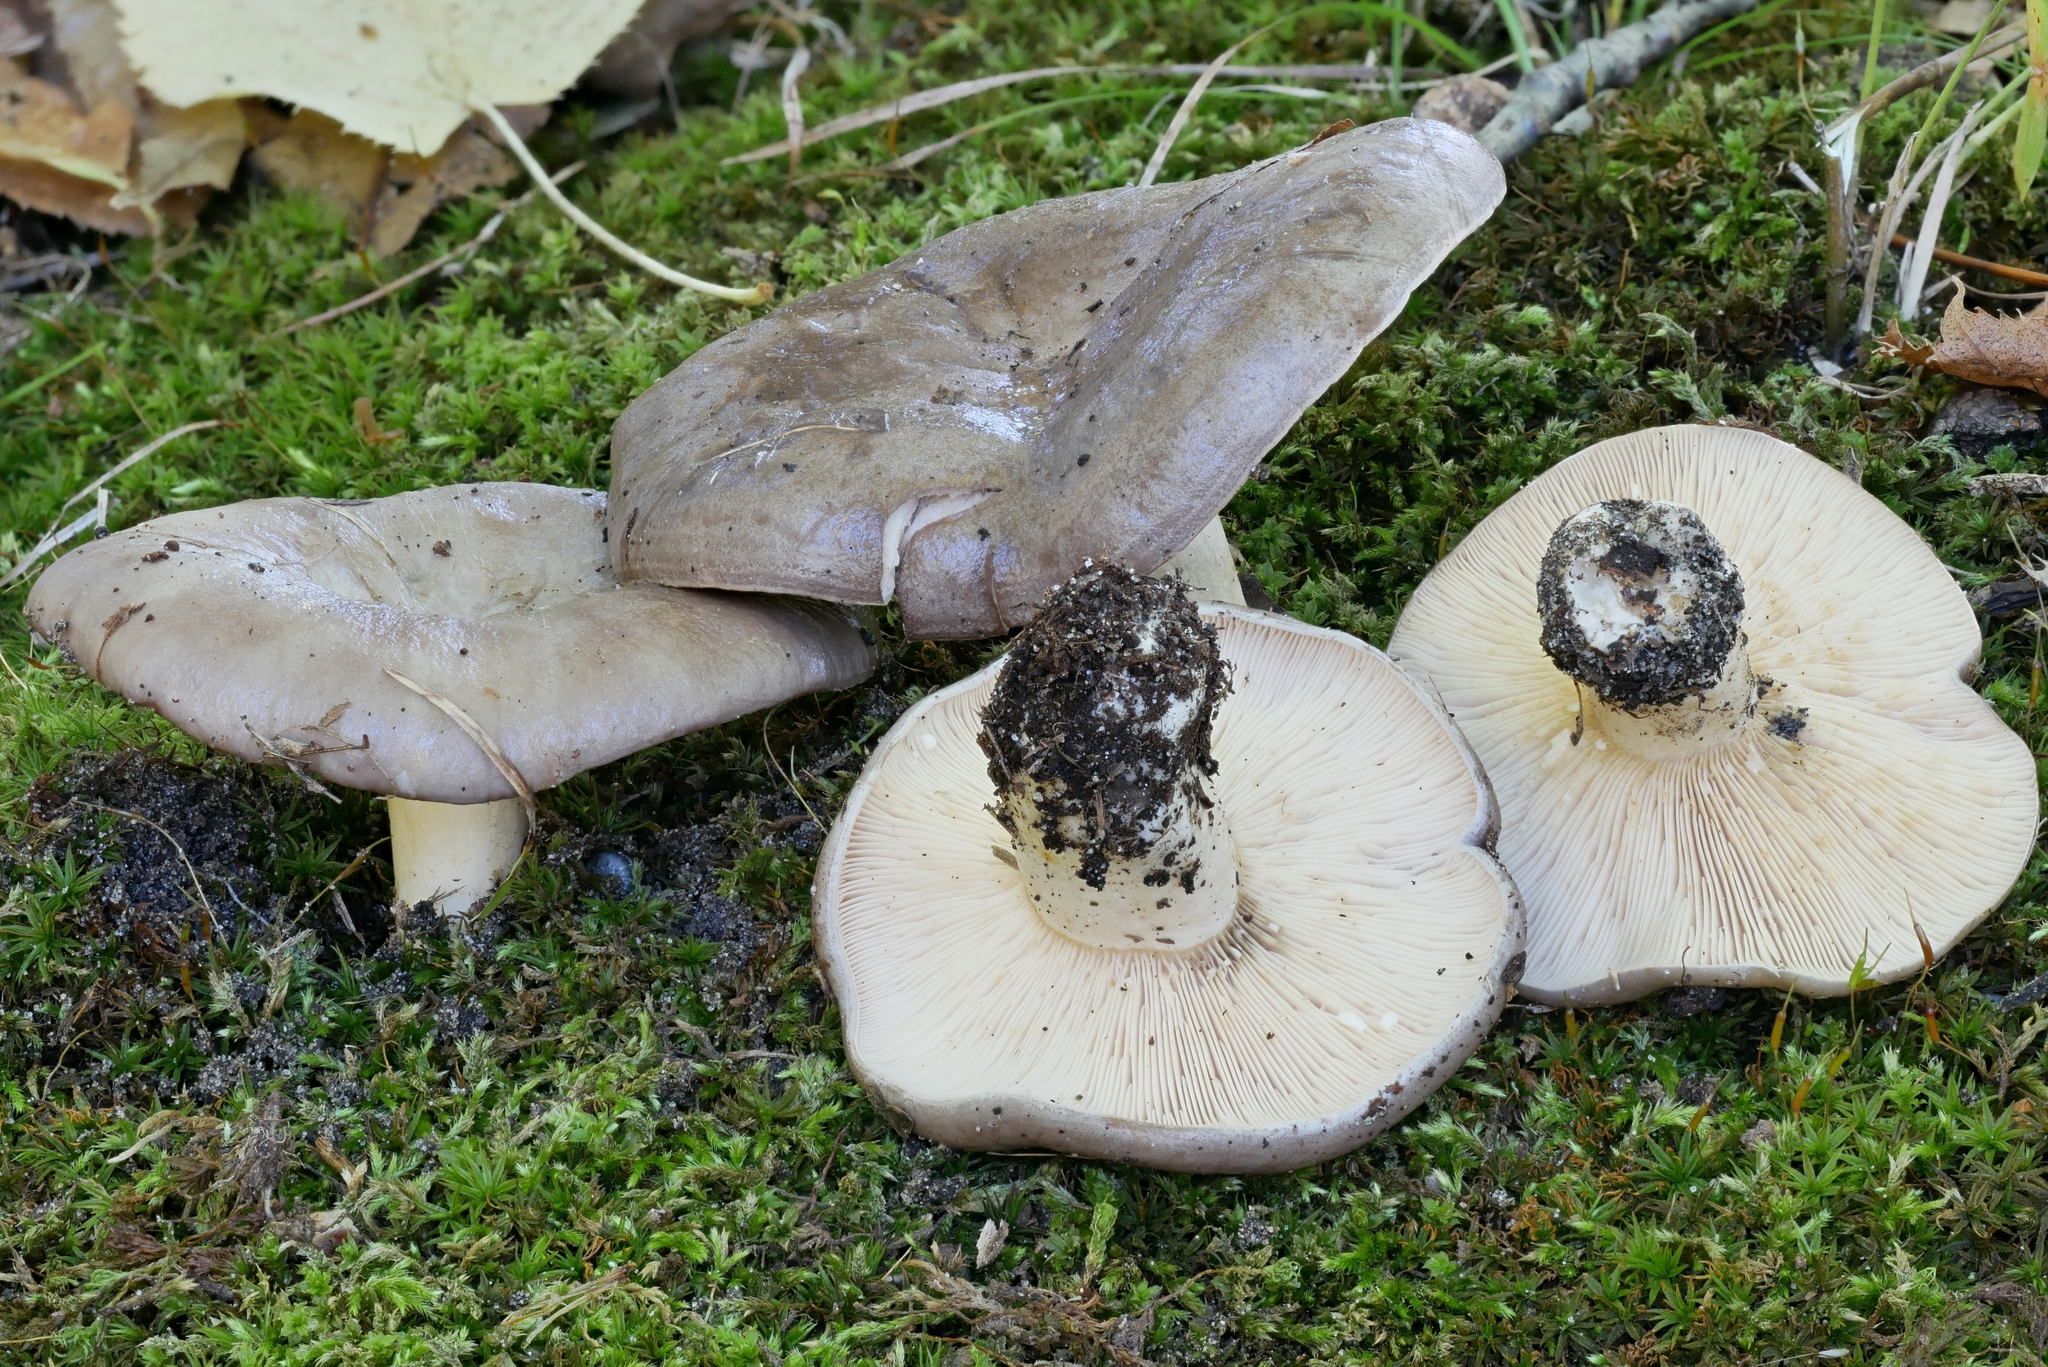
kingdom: Fungi
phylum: Basidiomycota
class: Agaricomycetes
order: Russulales
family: Russulaceae
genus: Lactarius
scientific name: Lactarius argillaceifolius
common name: Clay-gilled milkcap
